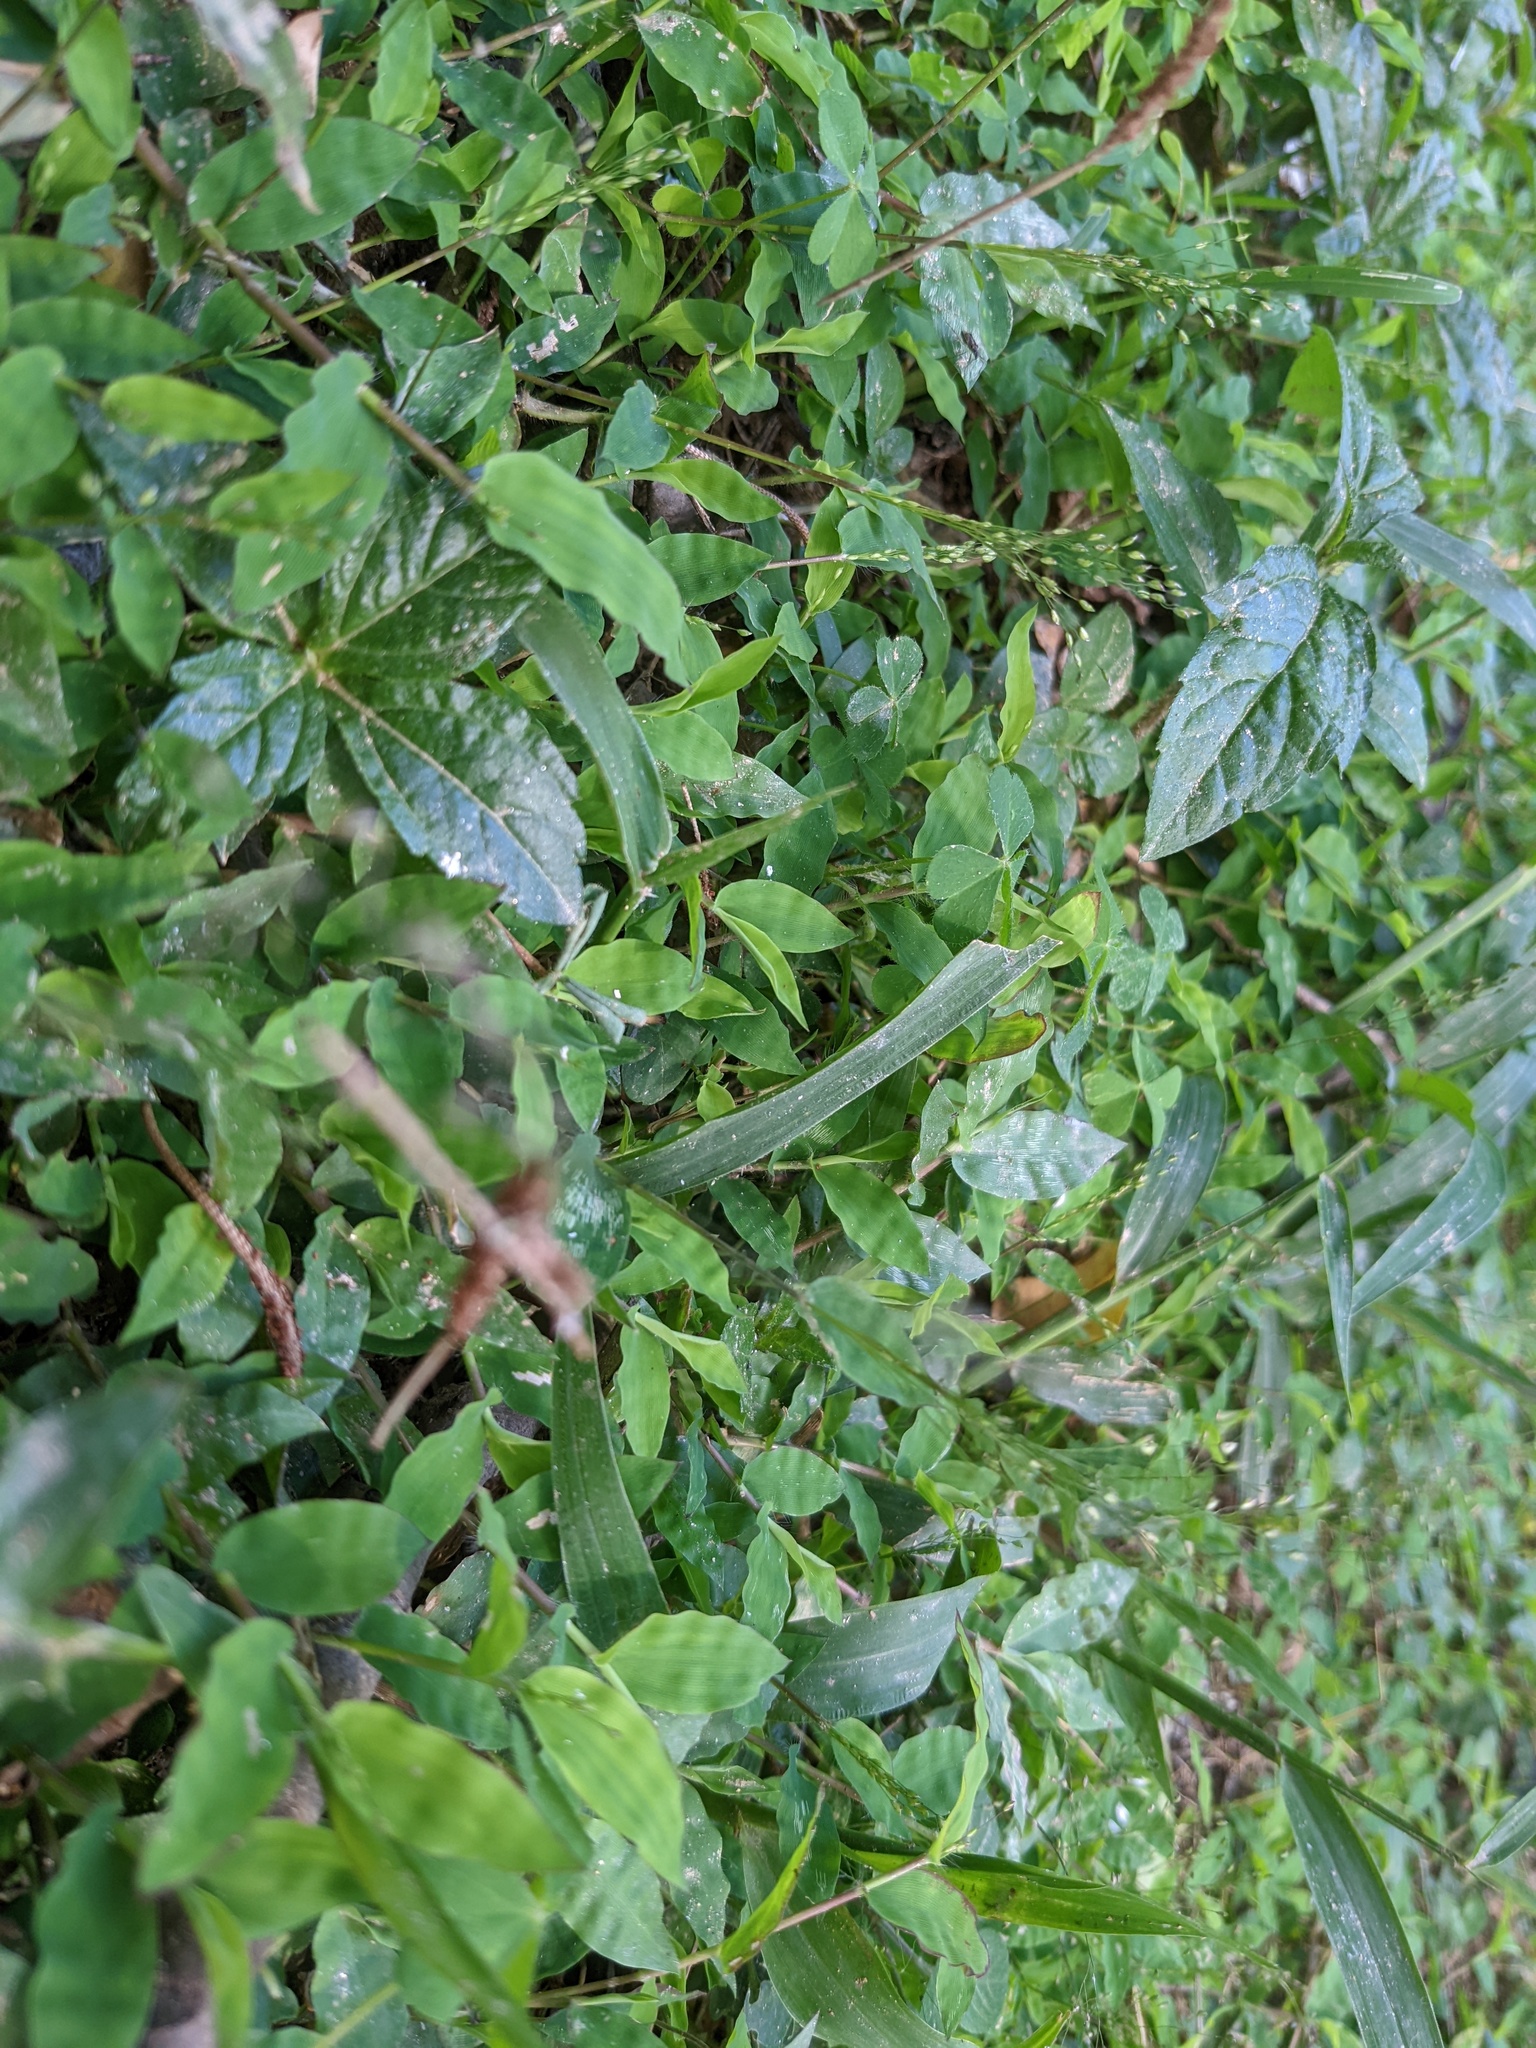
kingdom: Plantae
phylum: Tracheophyta
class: Liliopsida
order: Poales
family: Poaceae
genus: Cyrtococcum
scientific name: Cyrtococcum deltoideum
